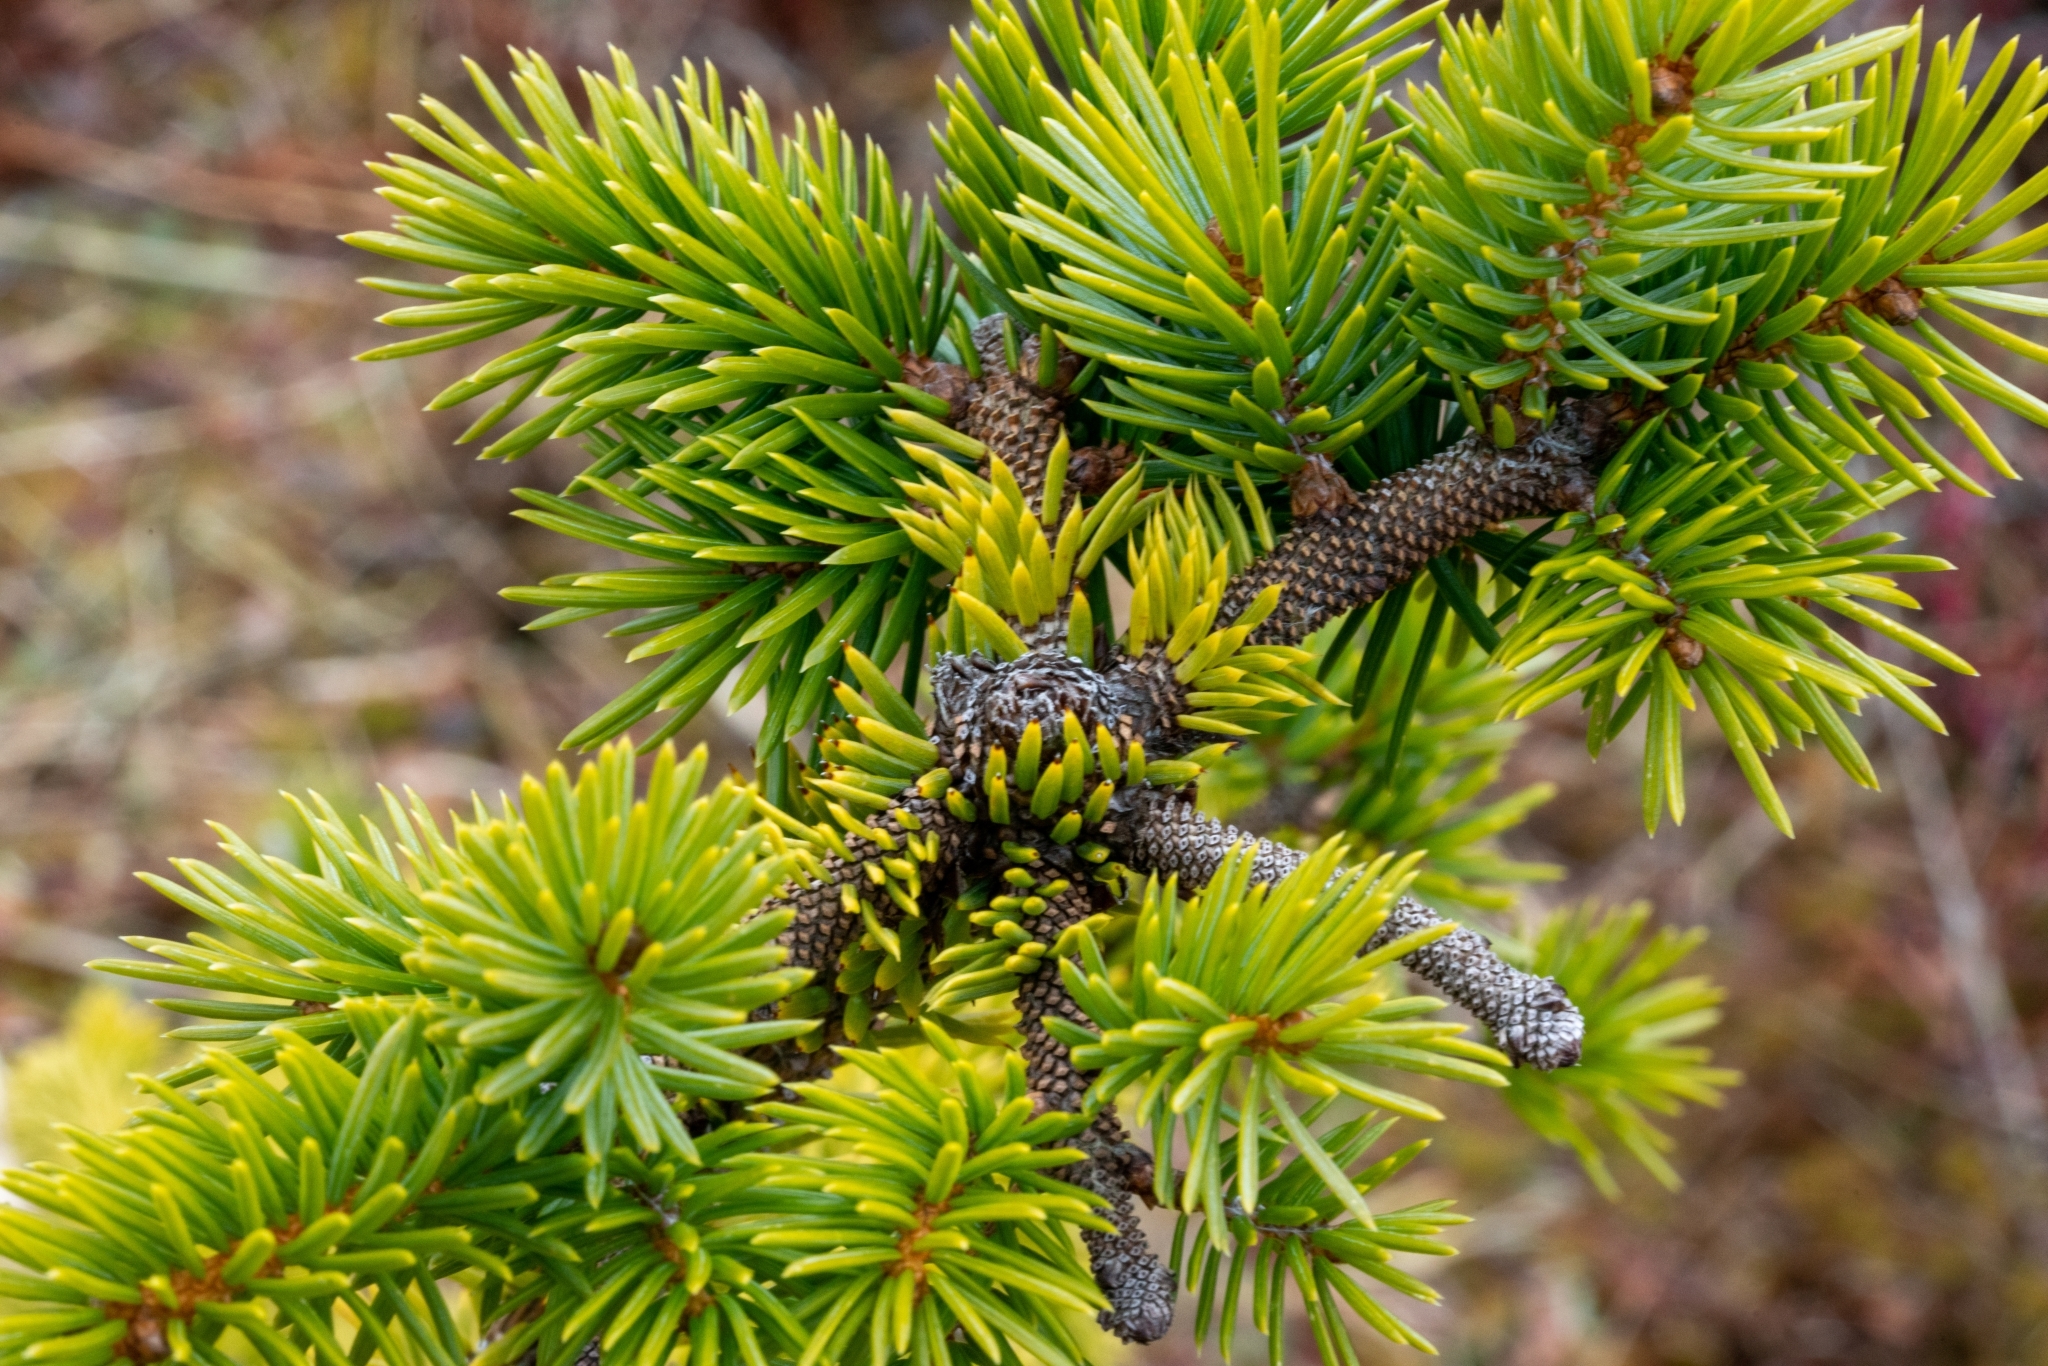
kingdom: Plantae
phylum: Tracheophyta
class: Pinopsida
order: Pinales
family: Pinaceae
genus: Picea
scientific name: Picea sitchensis
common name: Sitka spruce
